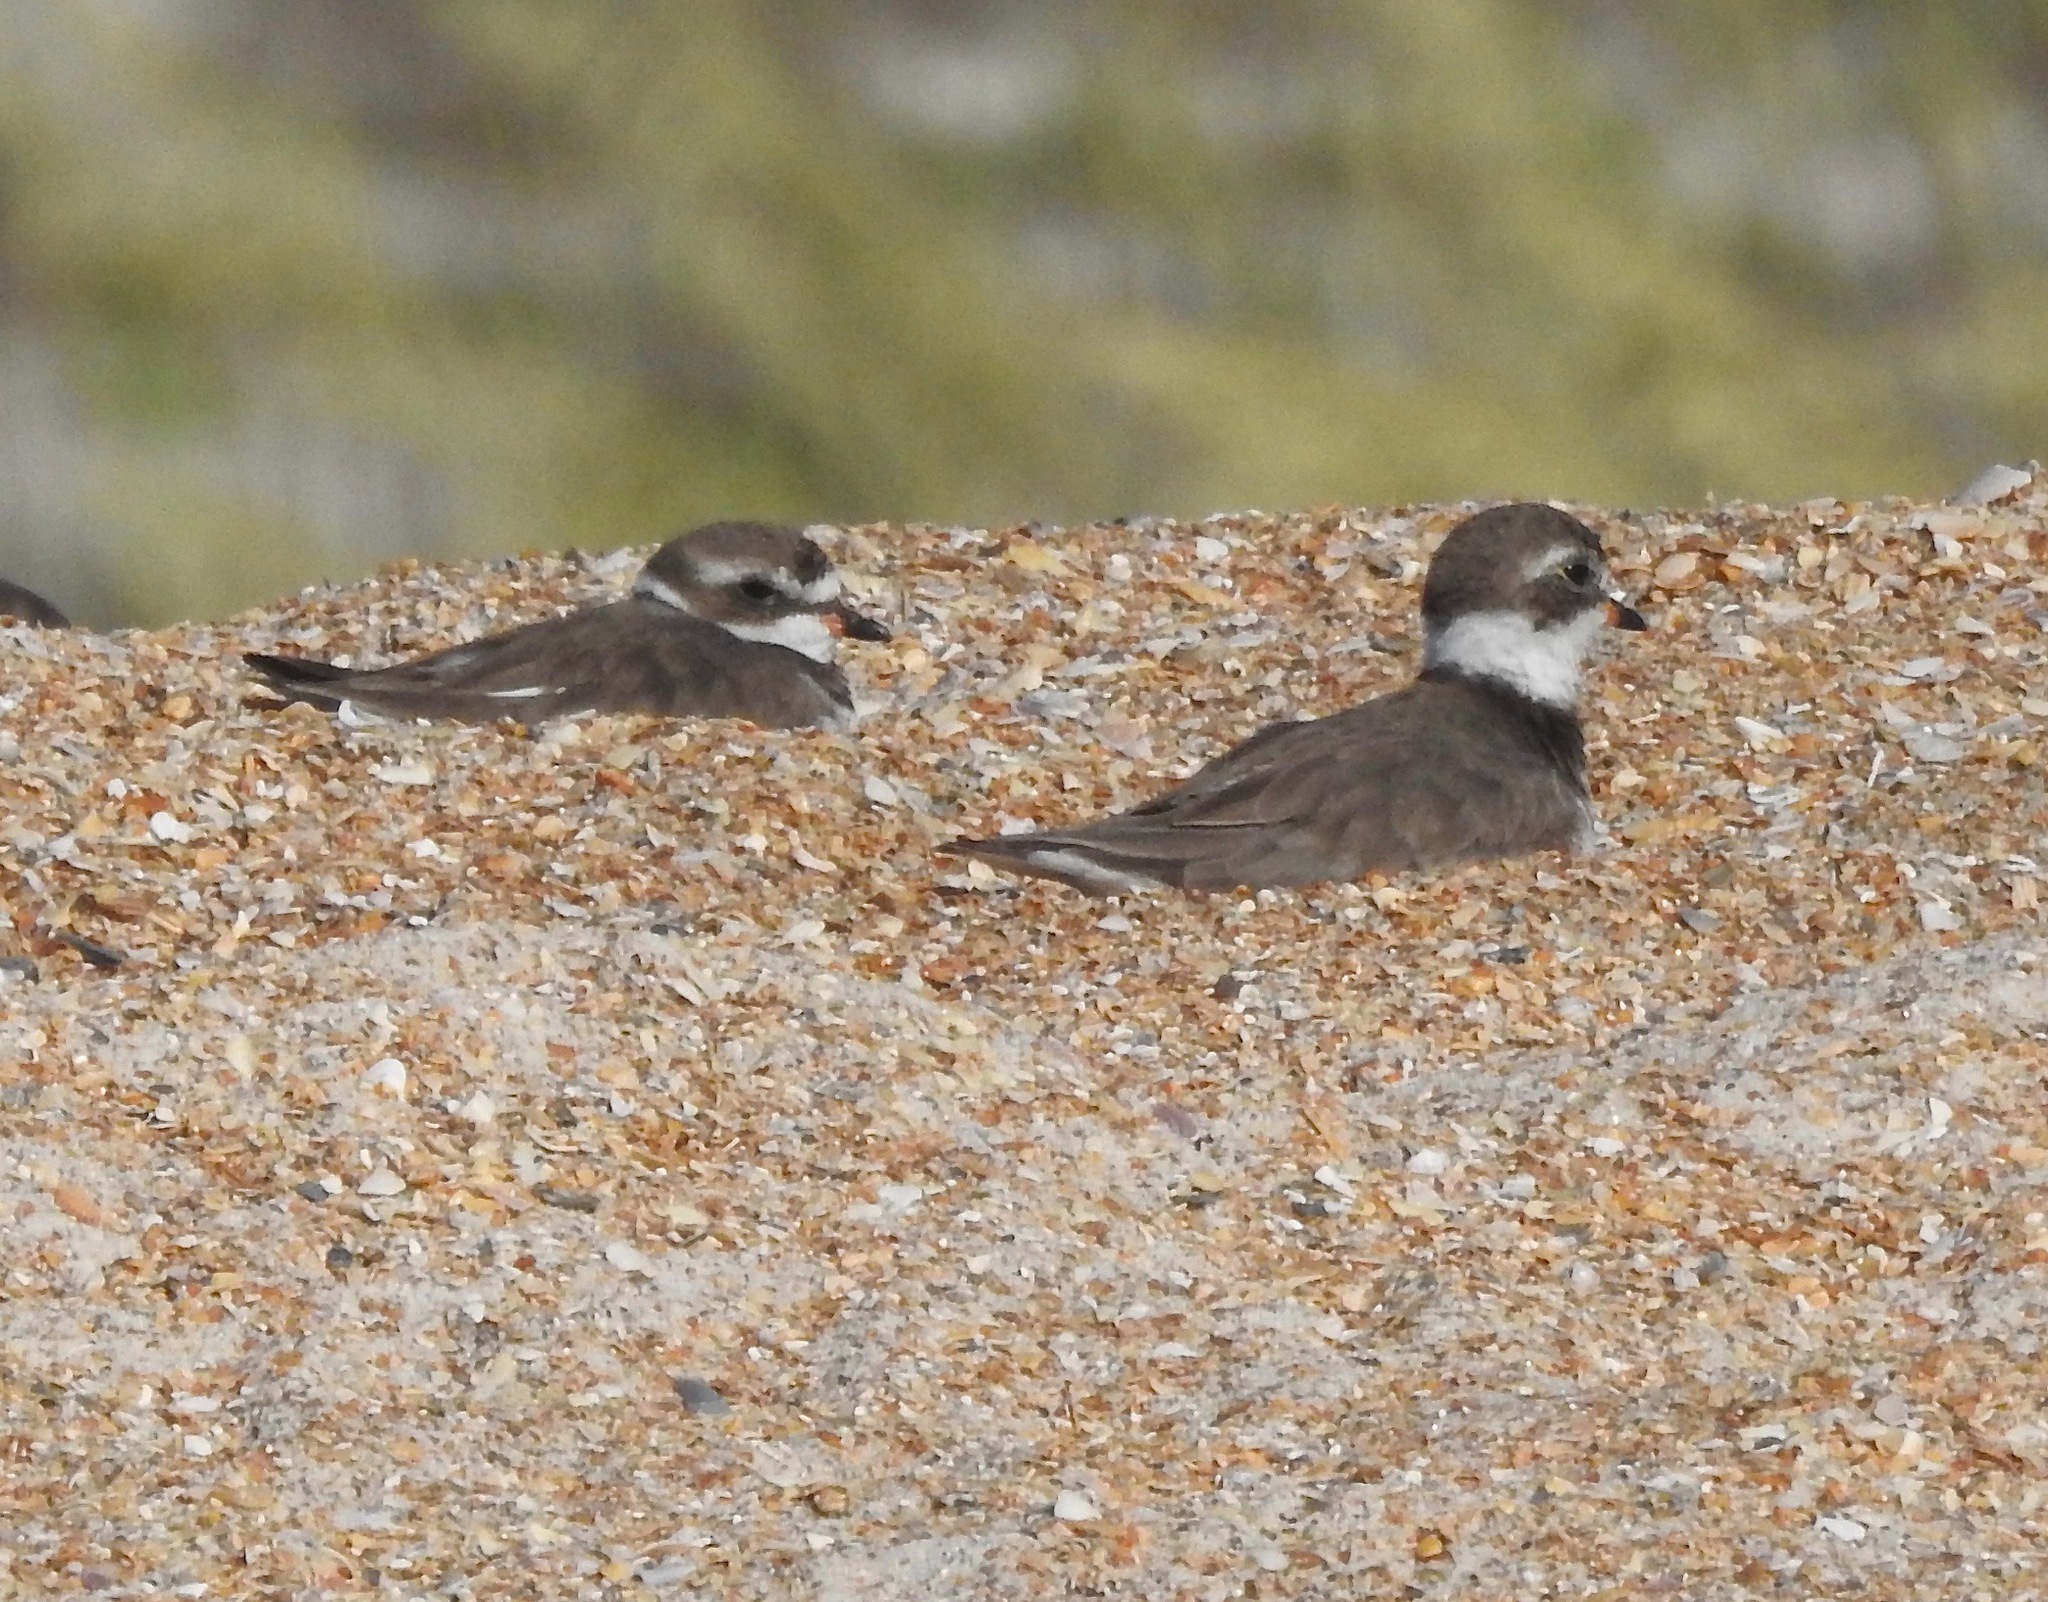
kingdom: Animalia
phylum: Chordata
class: Aves
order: Charadriiformes
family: Charadriidae
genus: Charadrius
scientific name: Charadrius semipalmatus
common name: Semipalmated plover
